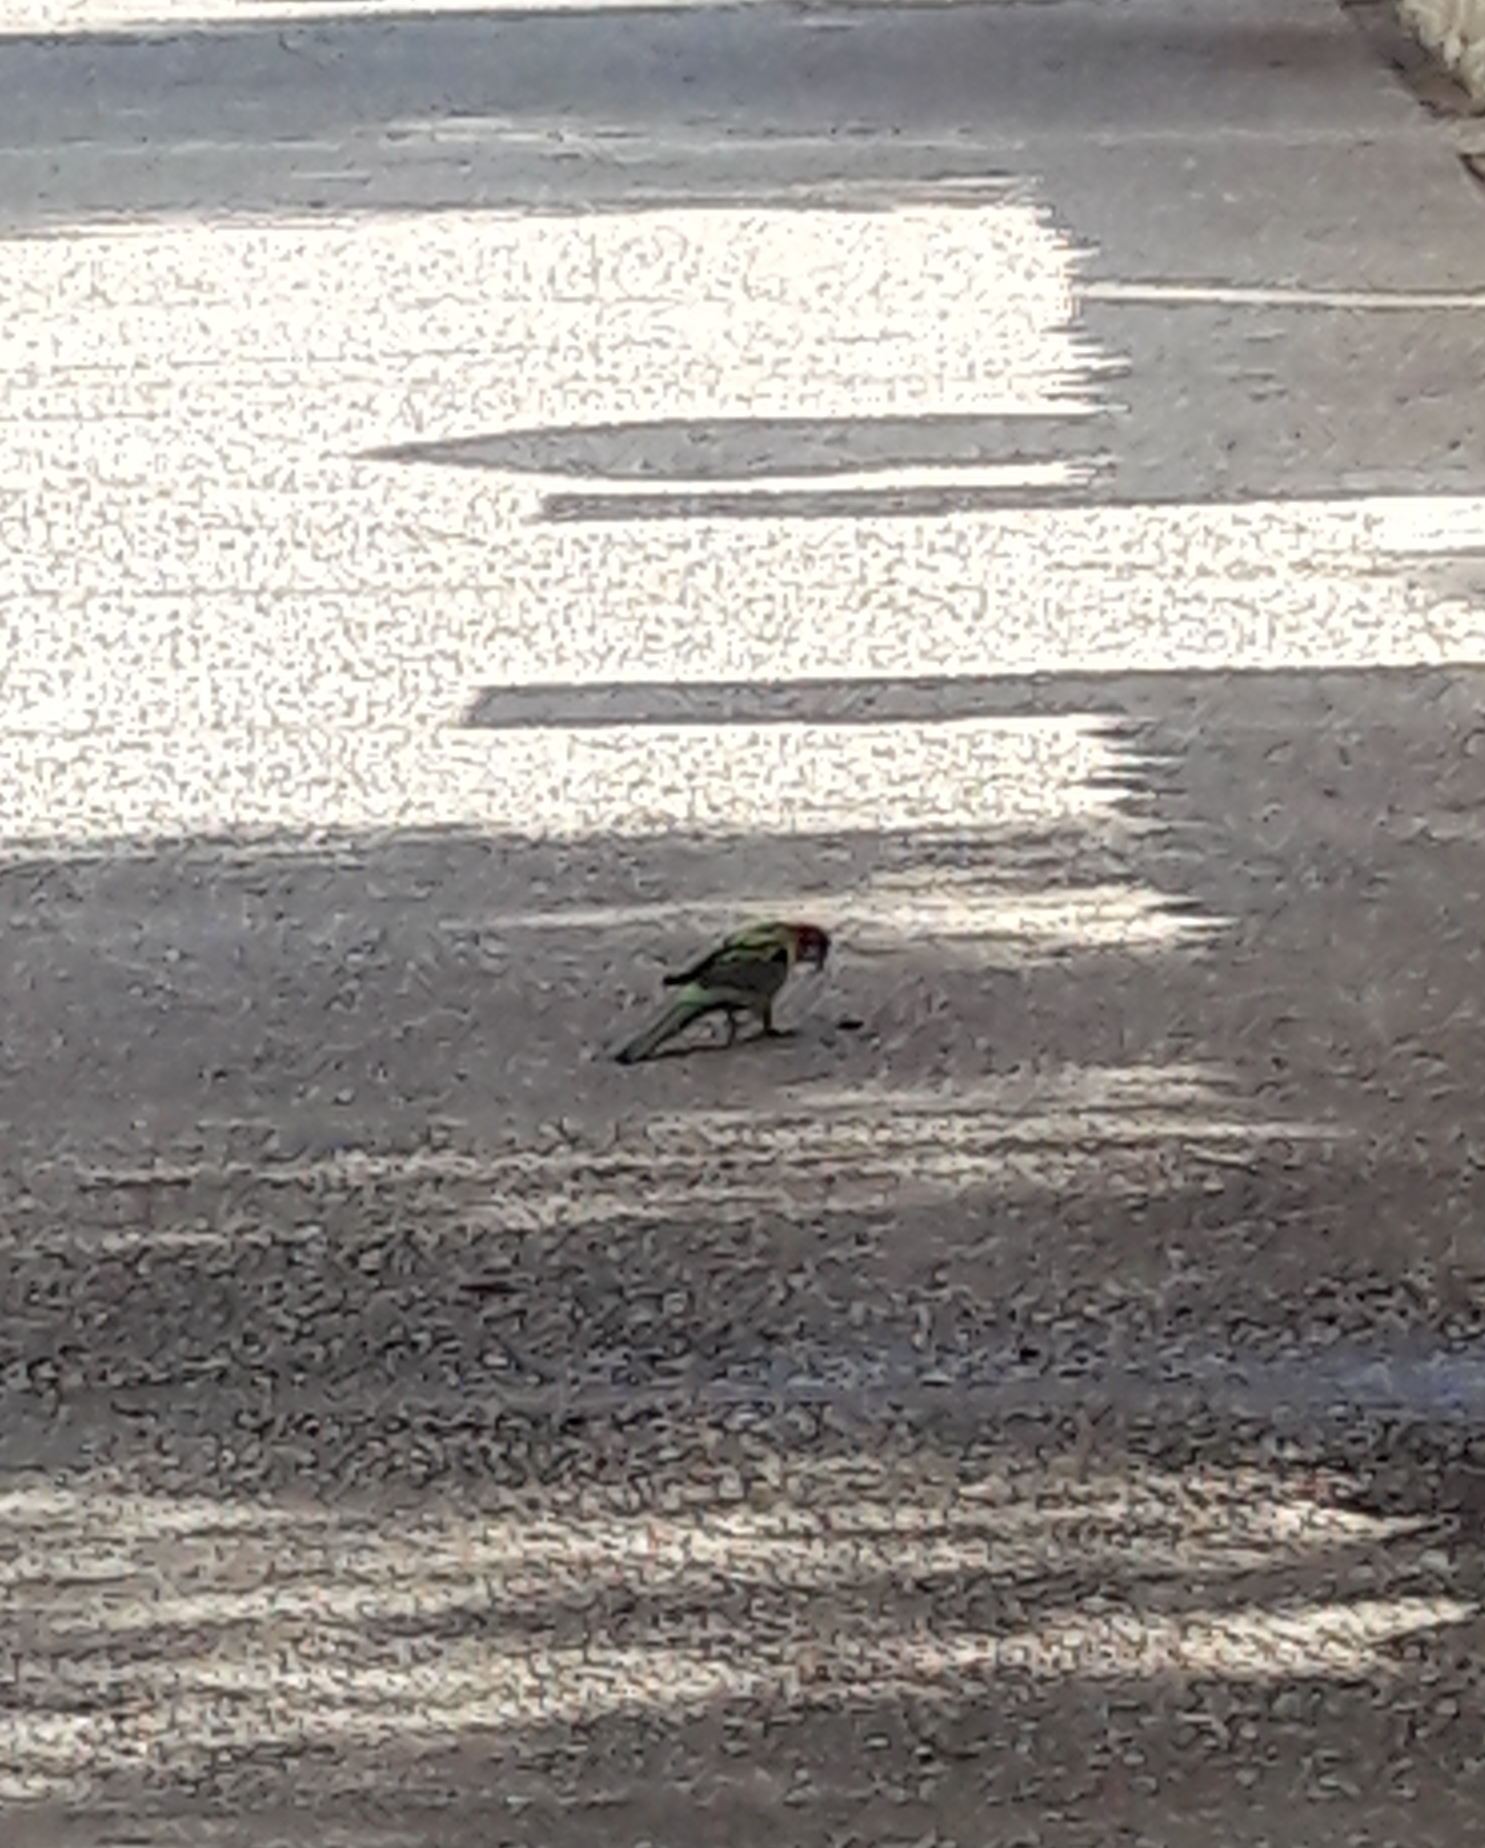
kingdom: Animalia
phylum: Chordata
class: Aves
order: Psittaciformes
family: Psittacidae
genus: Platycercus
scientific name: Platycercus eximius
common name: Eastern rosella
